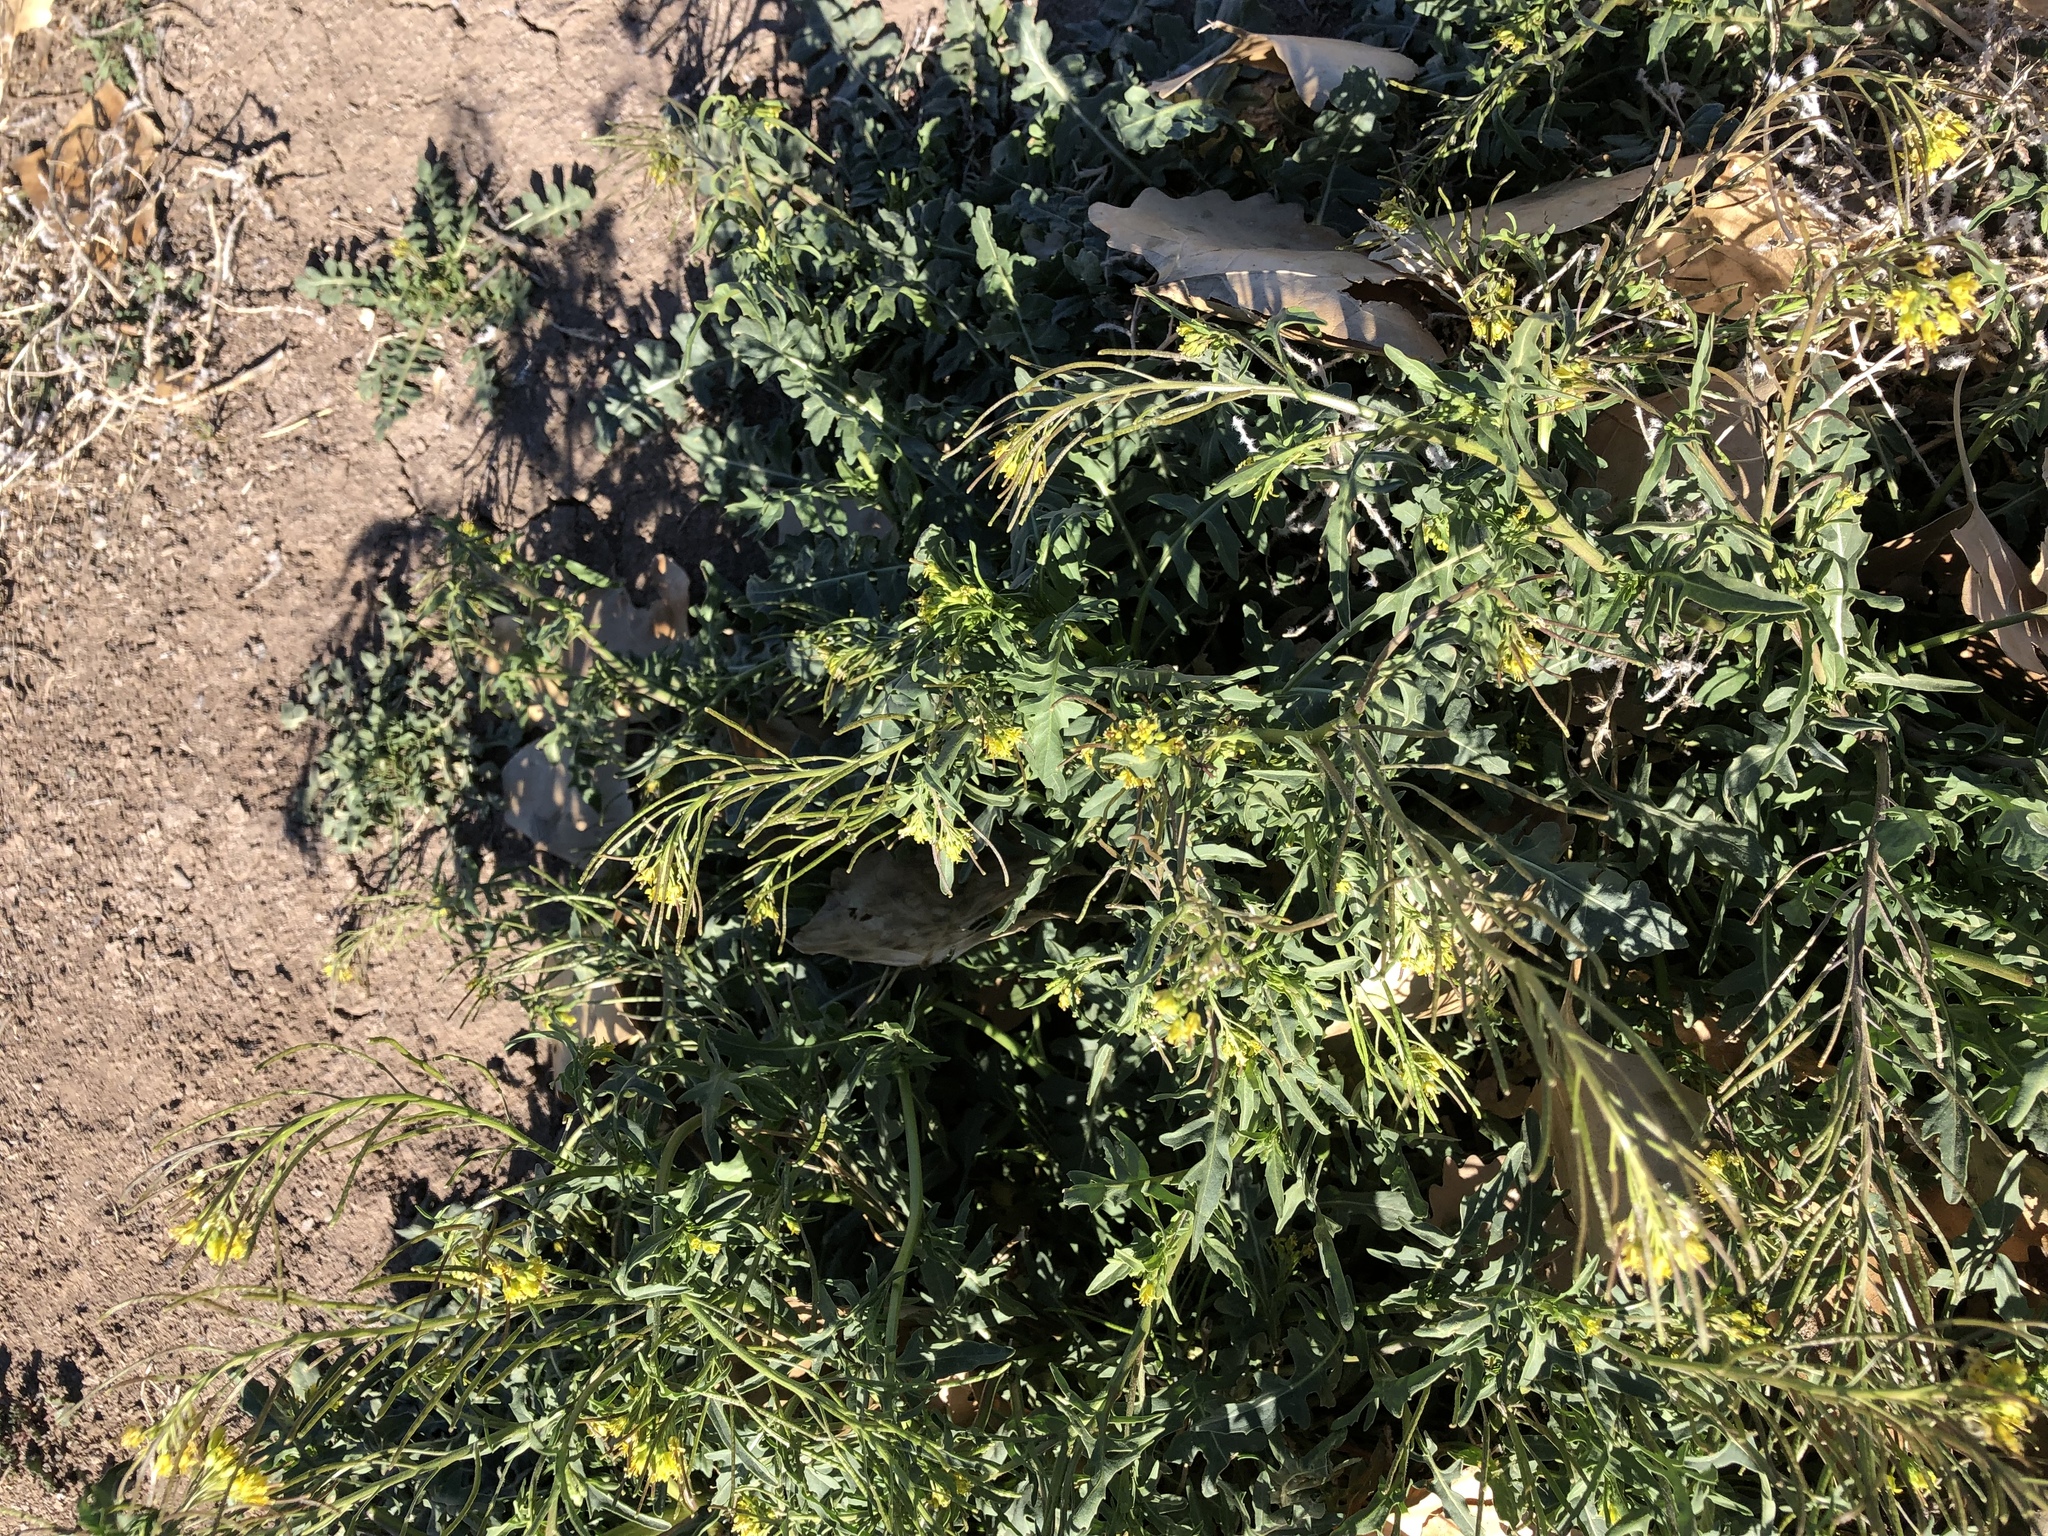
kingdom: Plantae
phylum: Tracheophyta
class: Magnoliopsida
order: Brassicales
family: Brassicaceae
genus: Sisymbrium
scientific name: Sisymbrium irio
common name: London rocket
